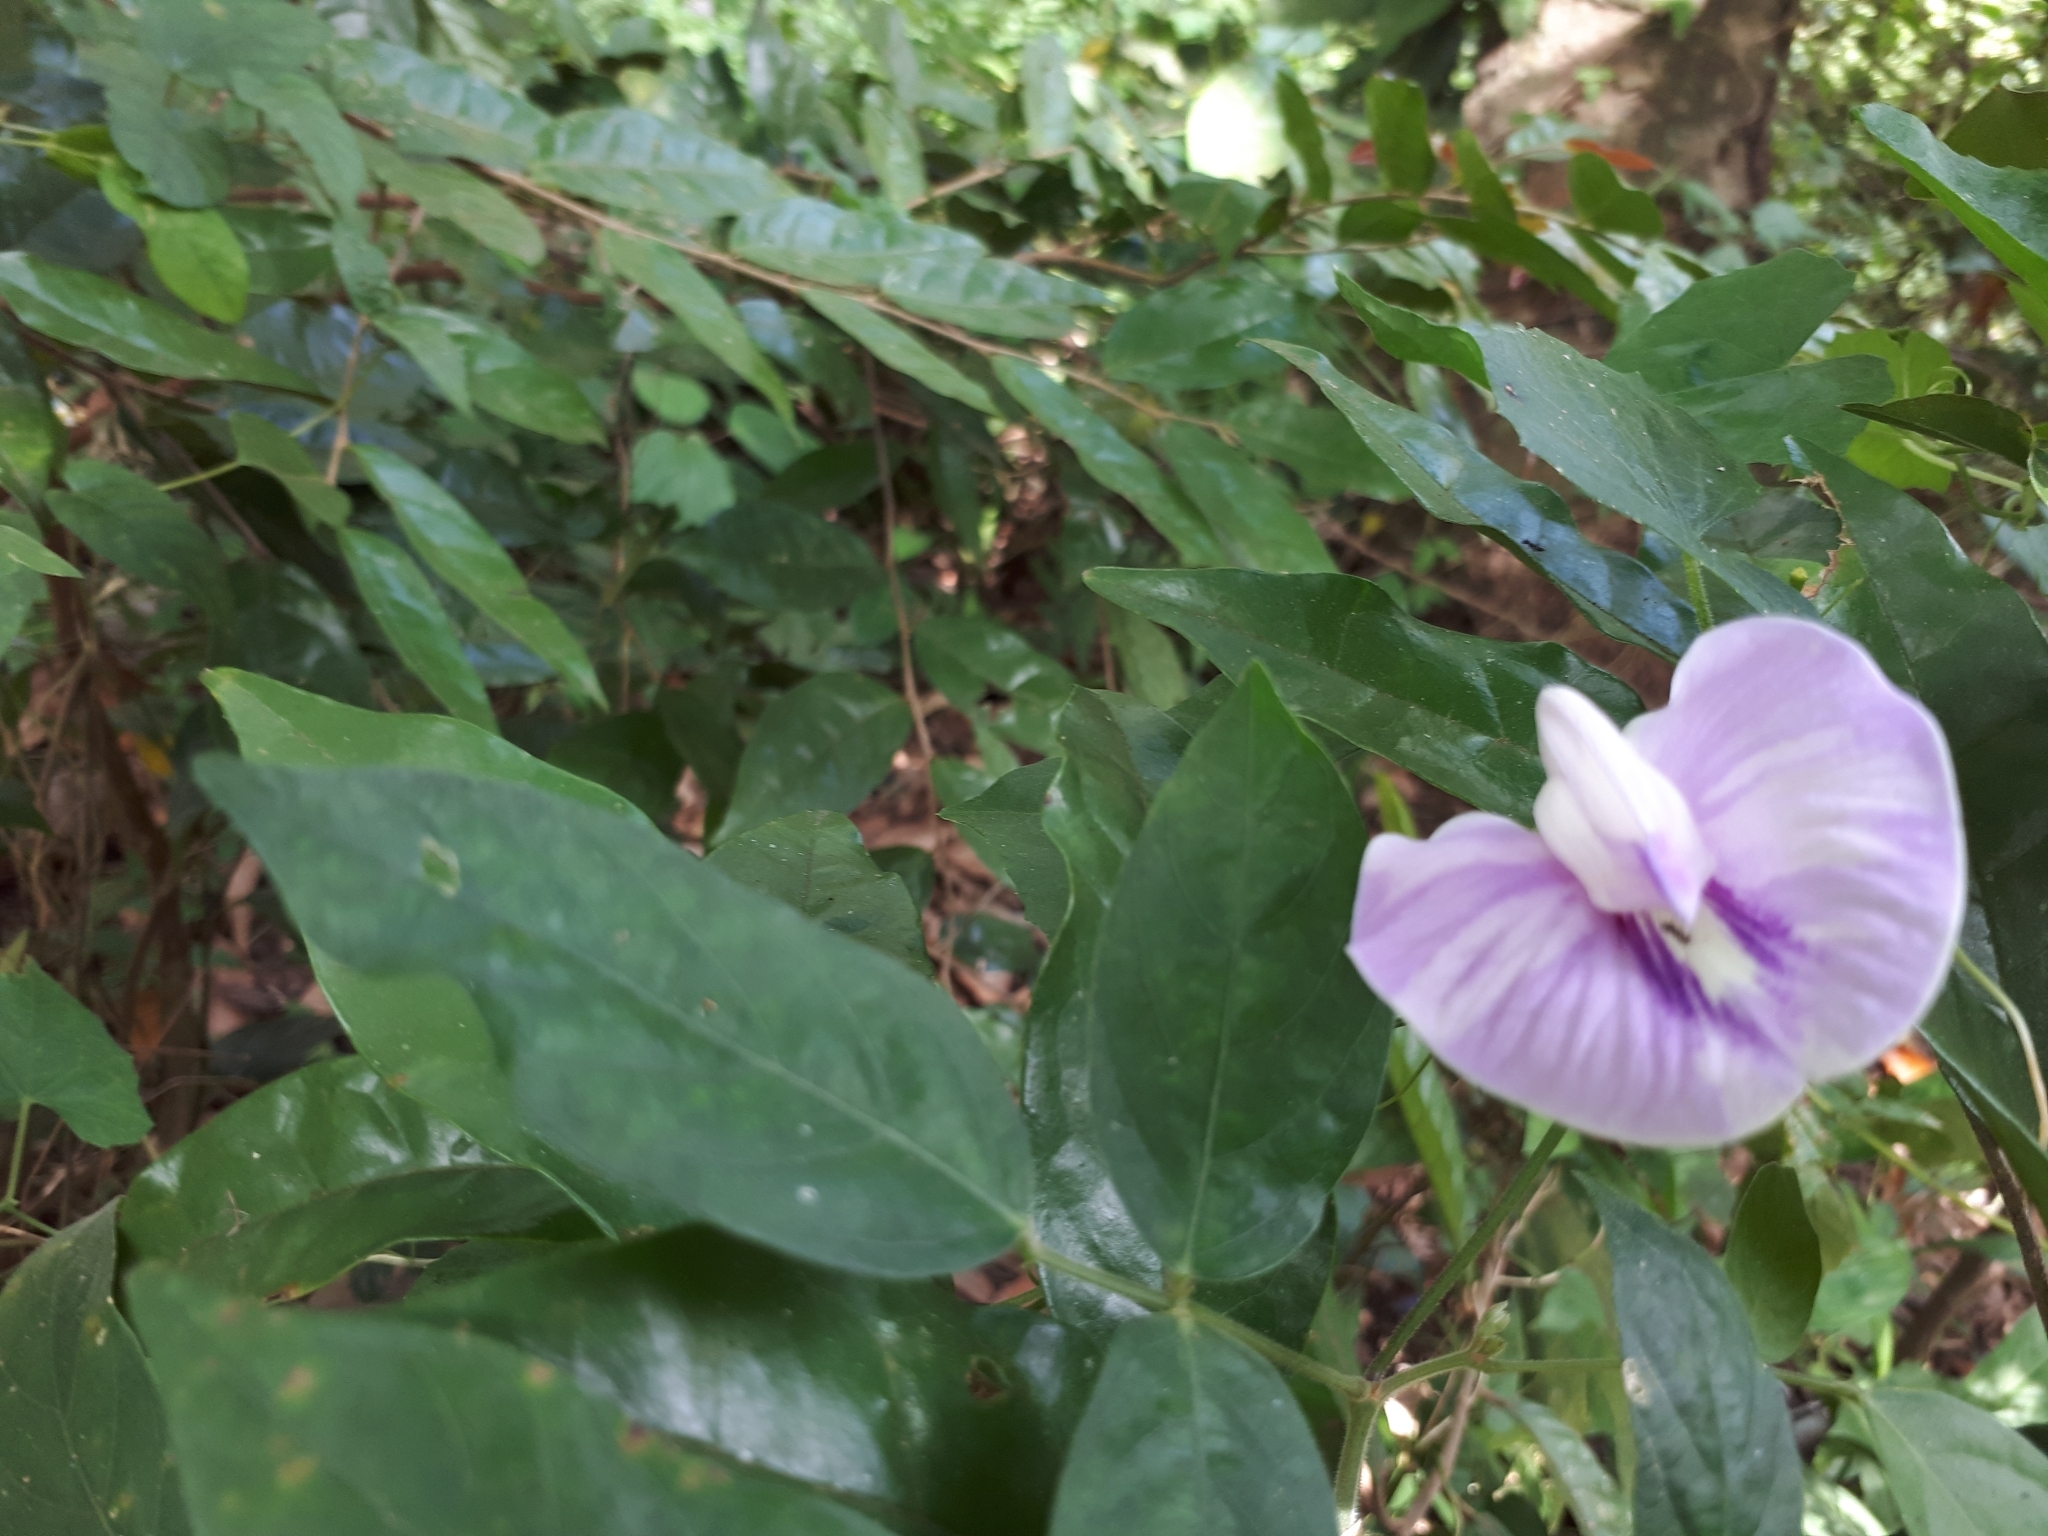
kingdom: Plantae
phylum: Tracheophyta
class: Magnoliopsida
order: Fabales
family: Fabaceae
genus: Centrosema
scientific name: Centrosema pubescens
